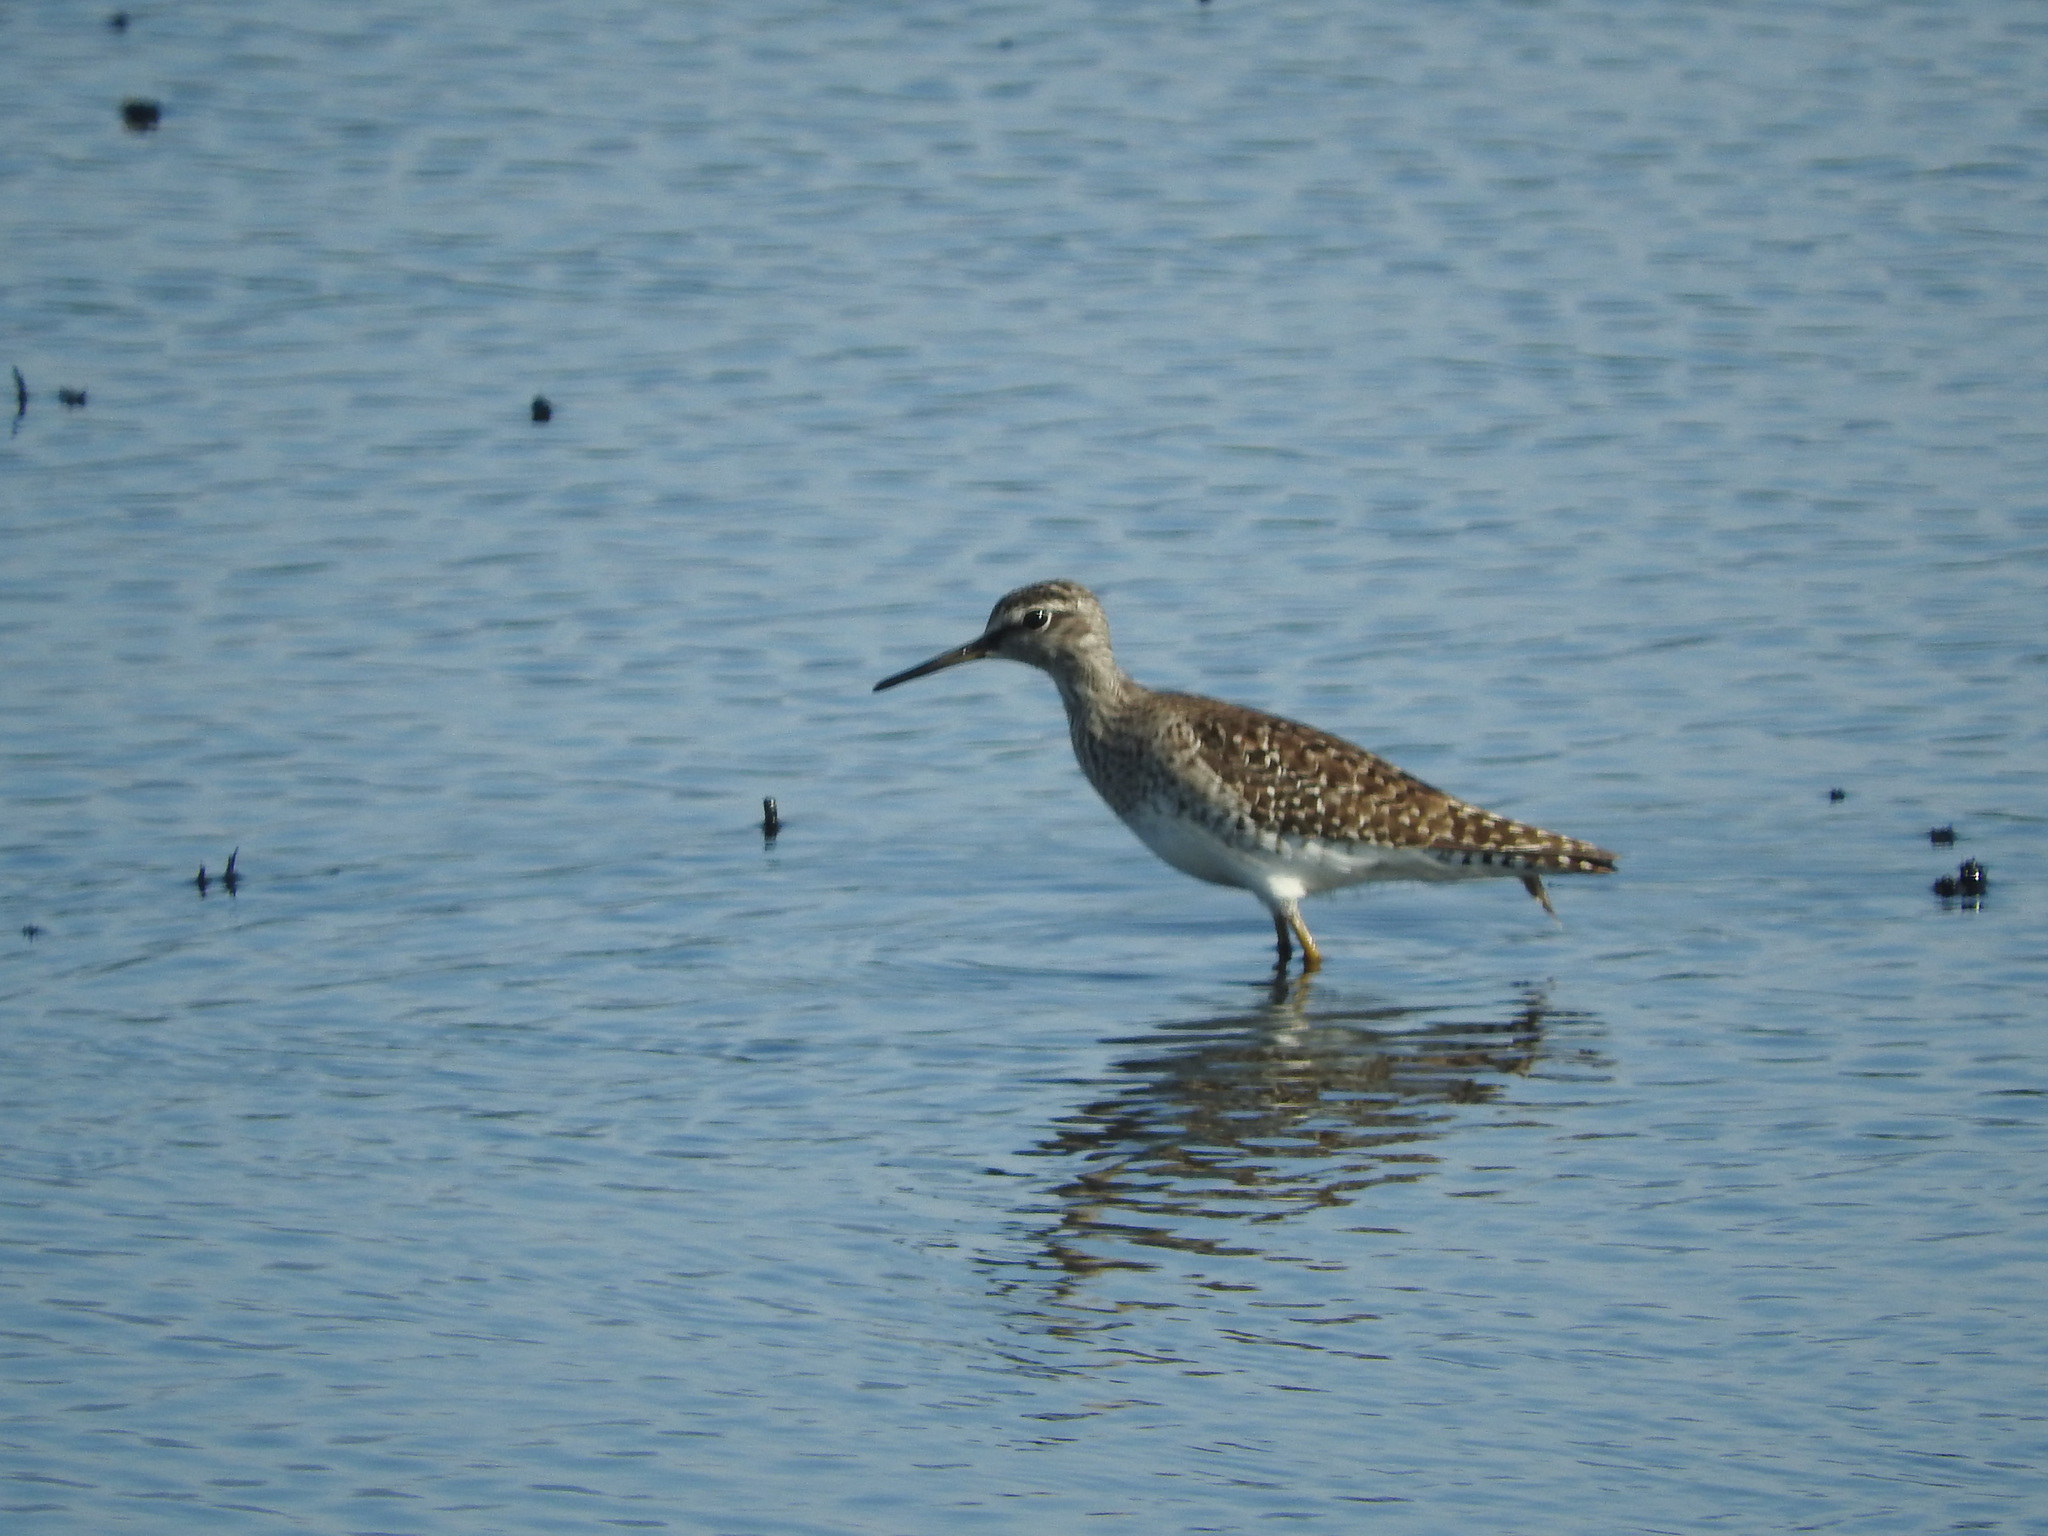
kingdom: Animalia
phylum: Chordata
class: Aves
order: Charadriiformes
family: Scolopacidae
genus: Tringa
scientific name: Tringa glareola
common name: Wood sandpiper
